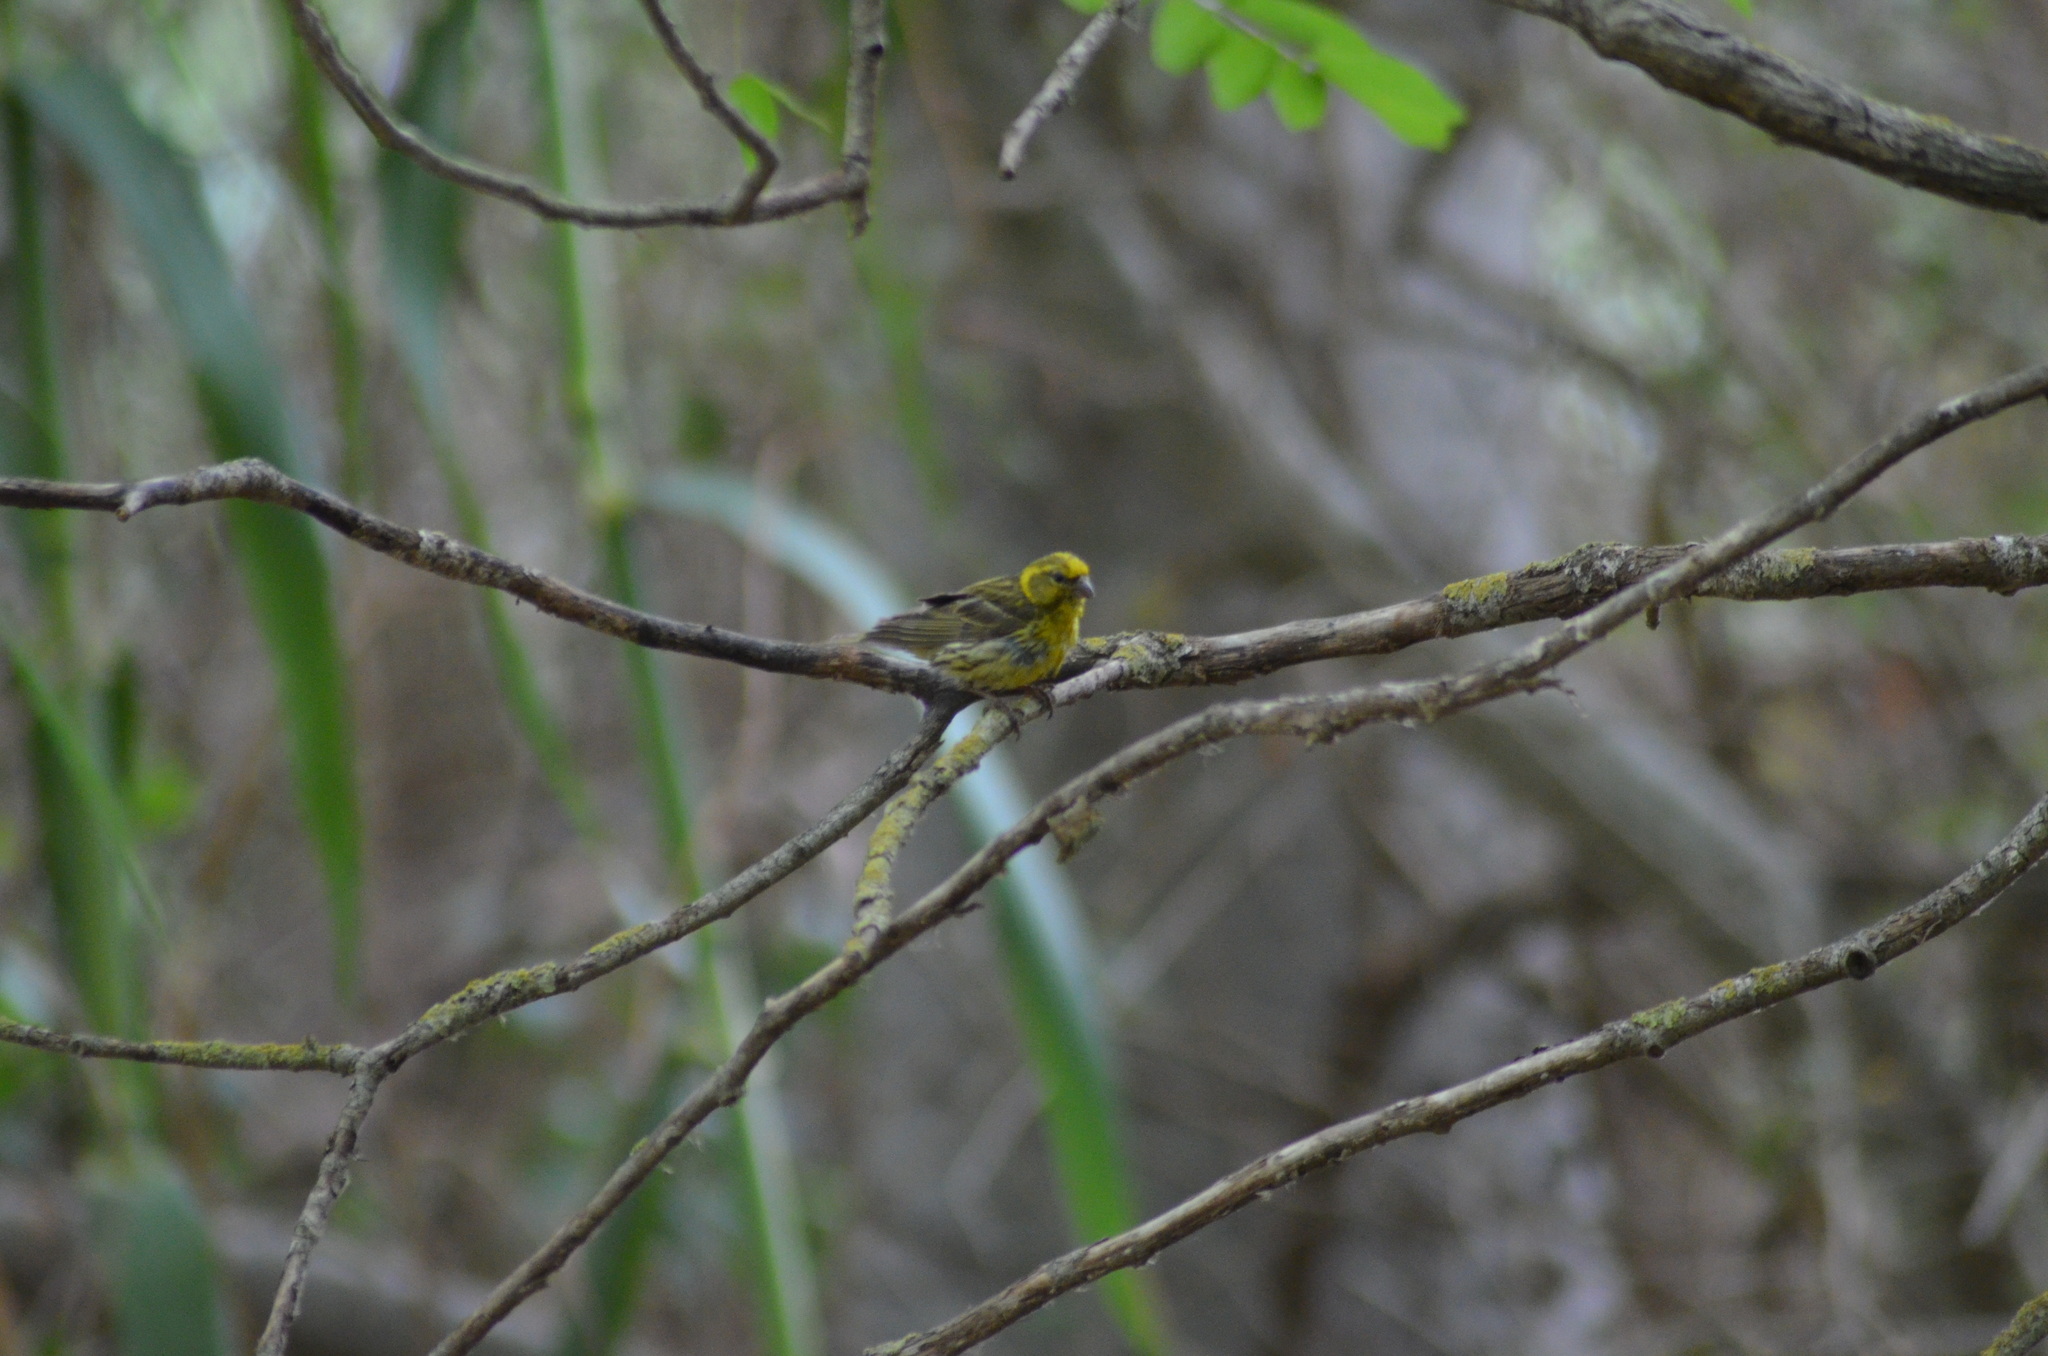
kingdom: Animalia
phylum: Chordata
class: Aves
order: Passeriformes
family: Fringillidae
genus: Serinus
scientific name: Serinus serinus
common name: European serin
